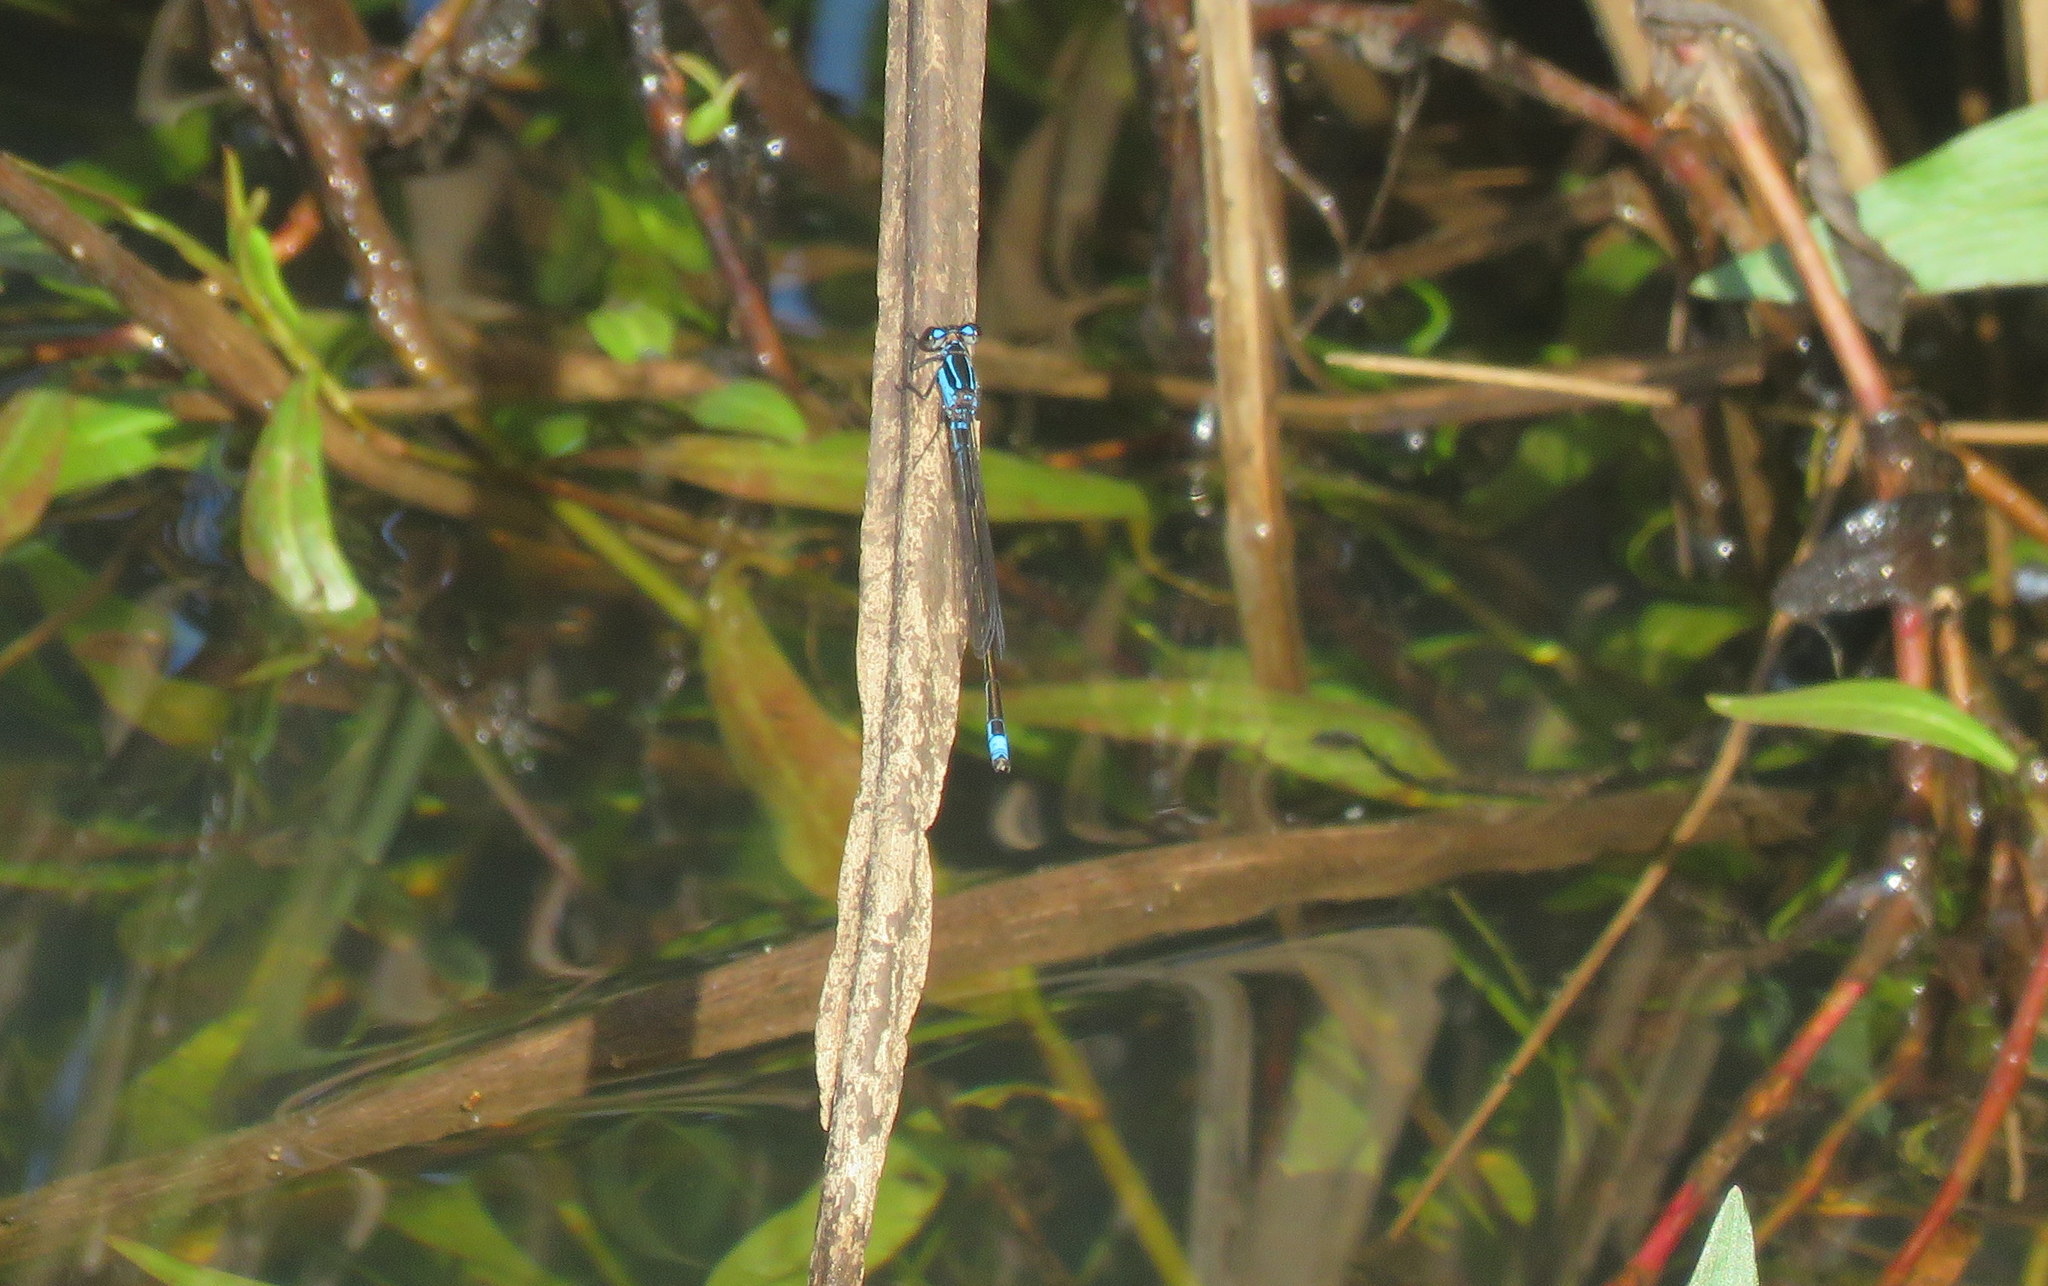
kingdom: Animalia
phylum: Arthropoda
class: Insecta
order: Odonata
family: Coenagrionidae
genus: Homeoura
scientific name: Homeoura chelifera
